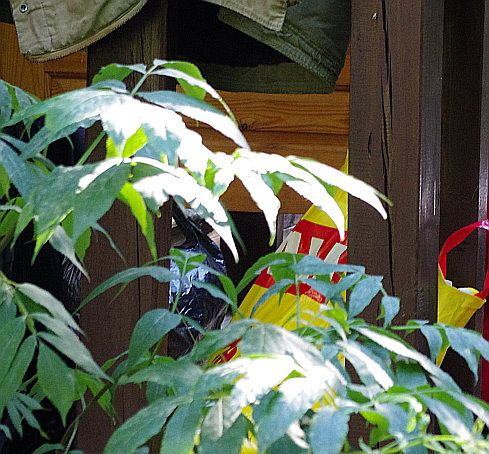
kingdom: Plantae
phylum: Tracheophyta
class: Magnoliopsida
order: Dipsacales
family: Viburnaceae
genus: Sambucus
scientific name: Sambucus racemosa
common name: Red-berried elder
